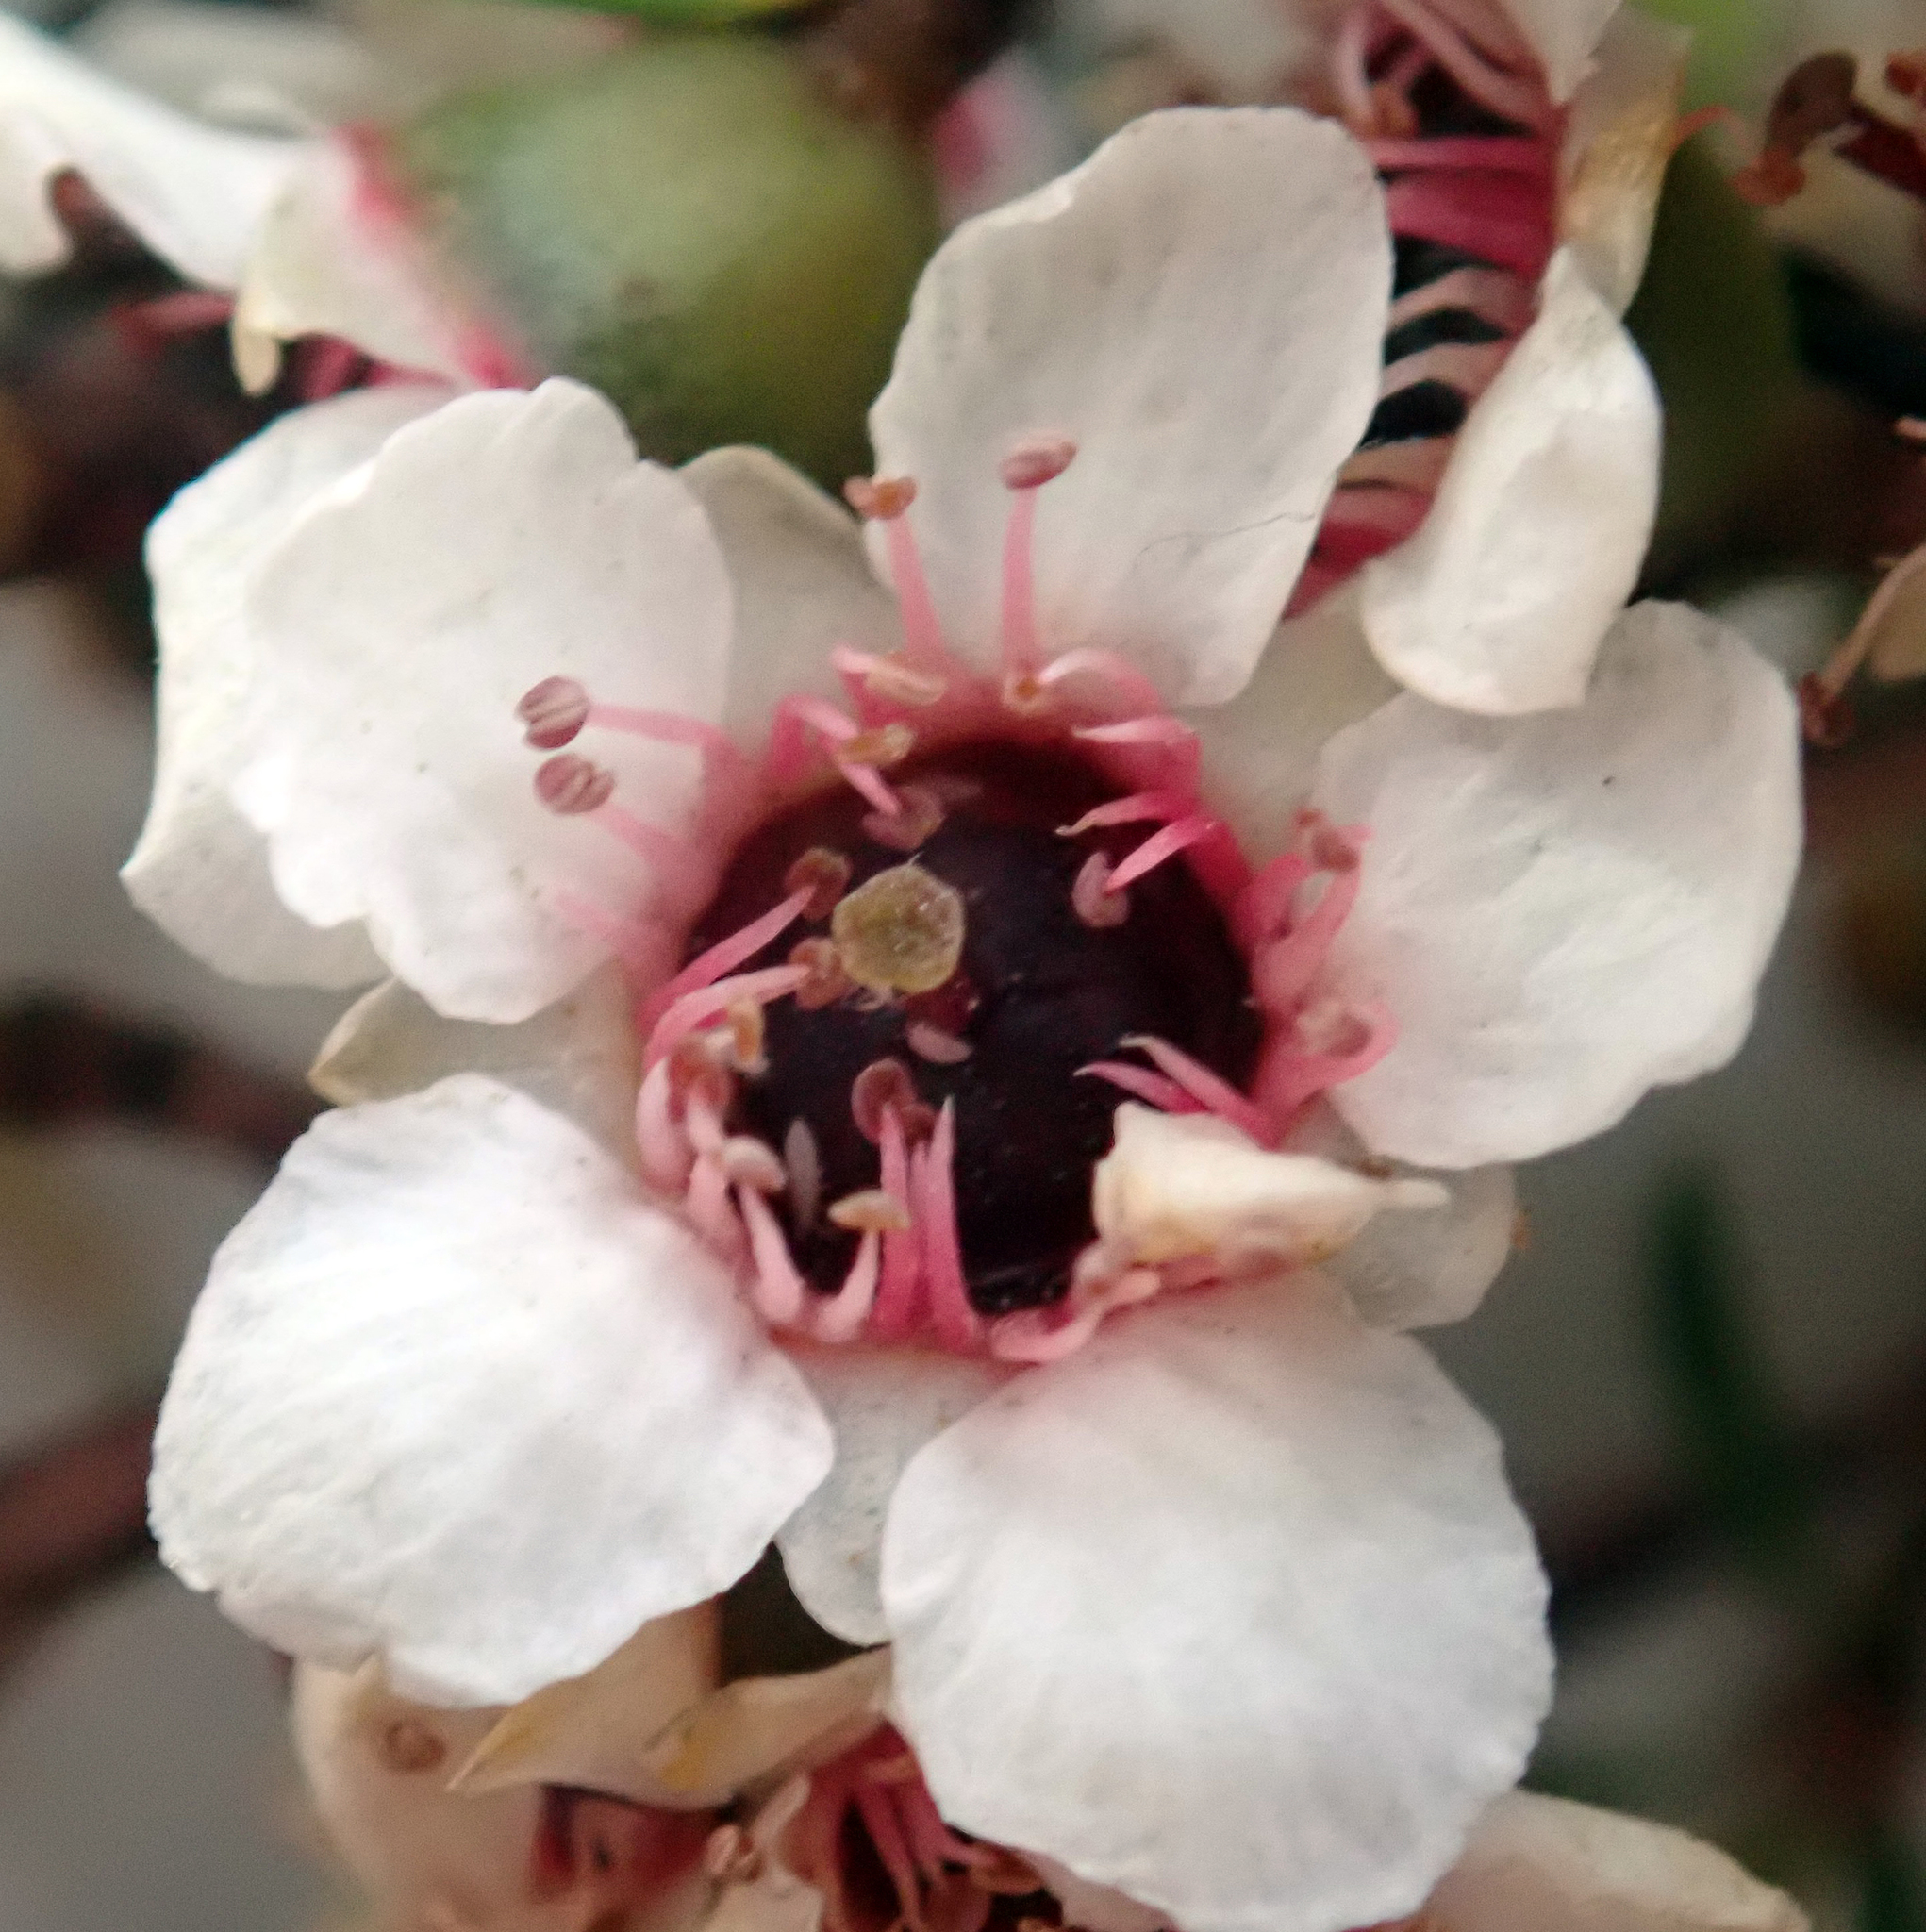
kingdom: Plantae
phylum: Tracheophyta
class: Magnoliopsida
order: Myrtales
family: Myrtaceae
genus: Leptospermum
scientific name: Leptospermum scoparium
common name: Broom tea-tree
